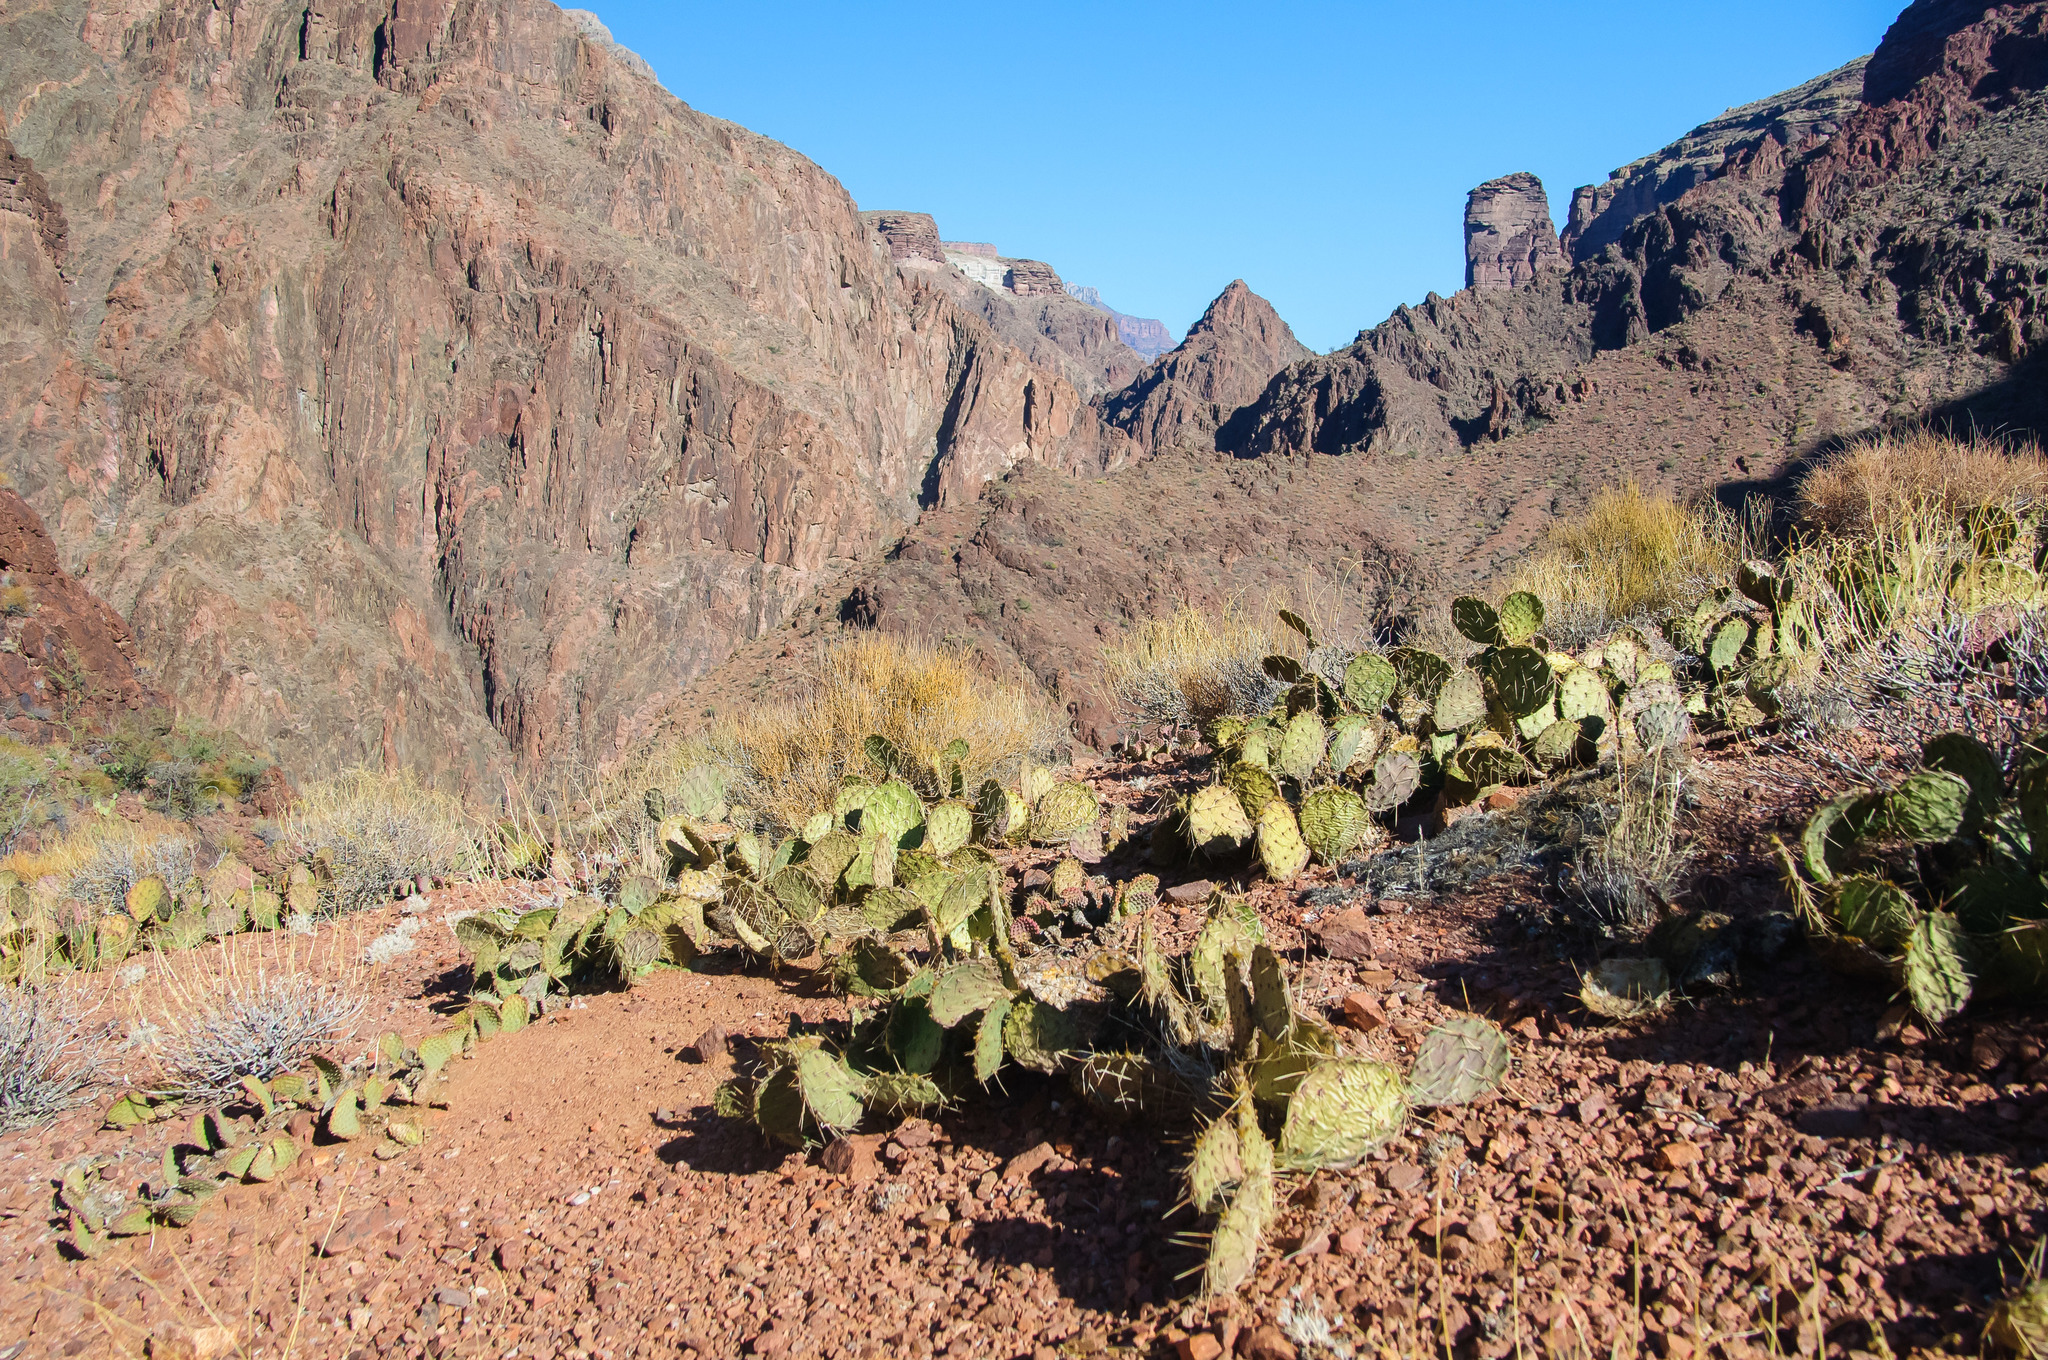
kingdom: Plantae
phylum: Tracheophyta
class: Magnoliopsida
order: Caryophyllales
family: Cactaceae
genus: Opuntia
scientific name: Opuntia phaeacantha
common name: New mexico prickly-pear
